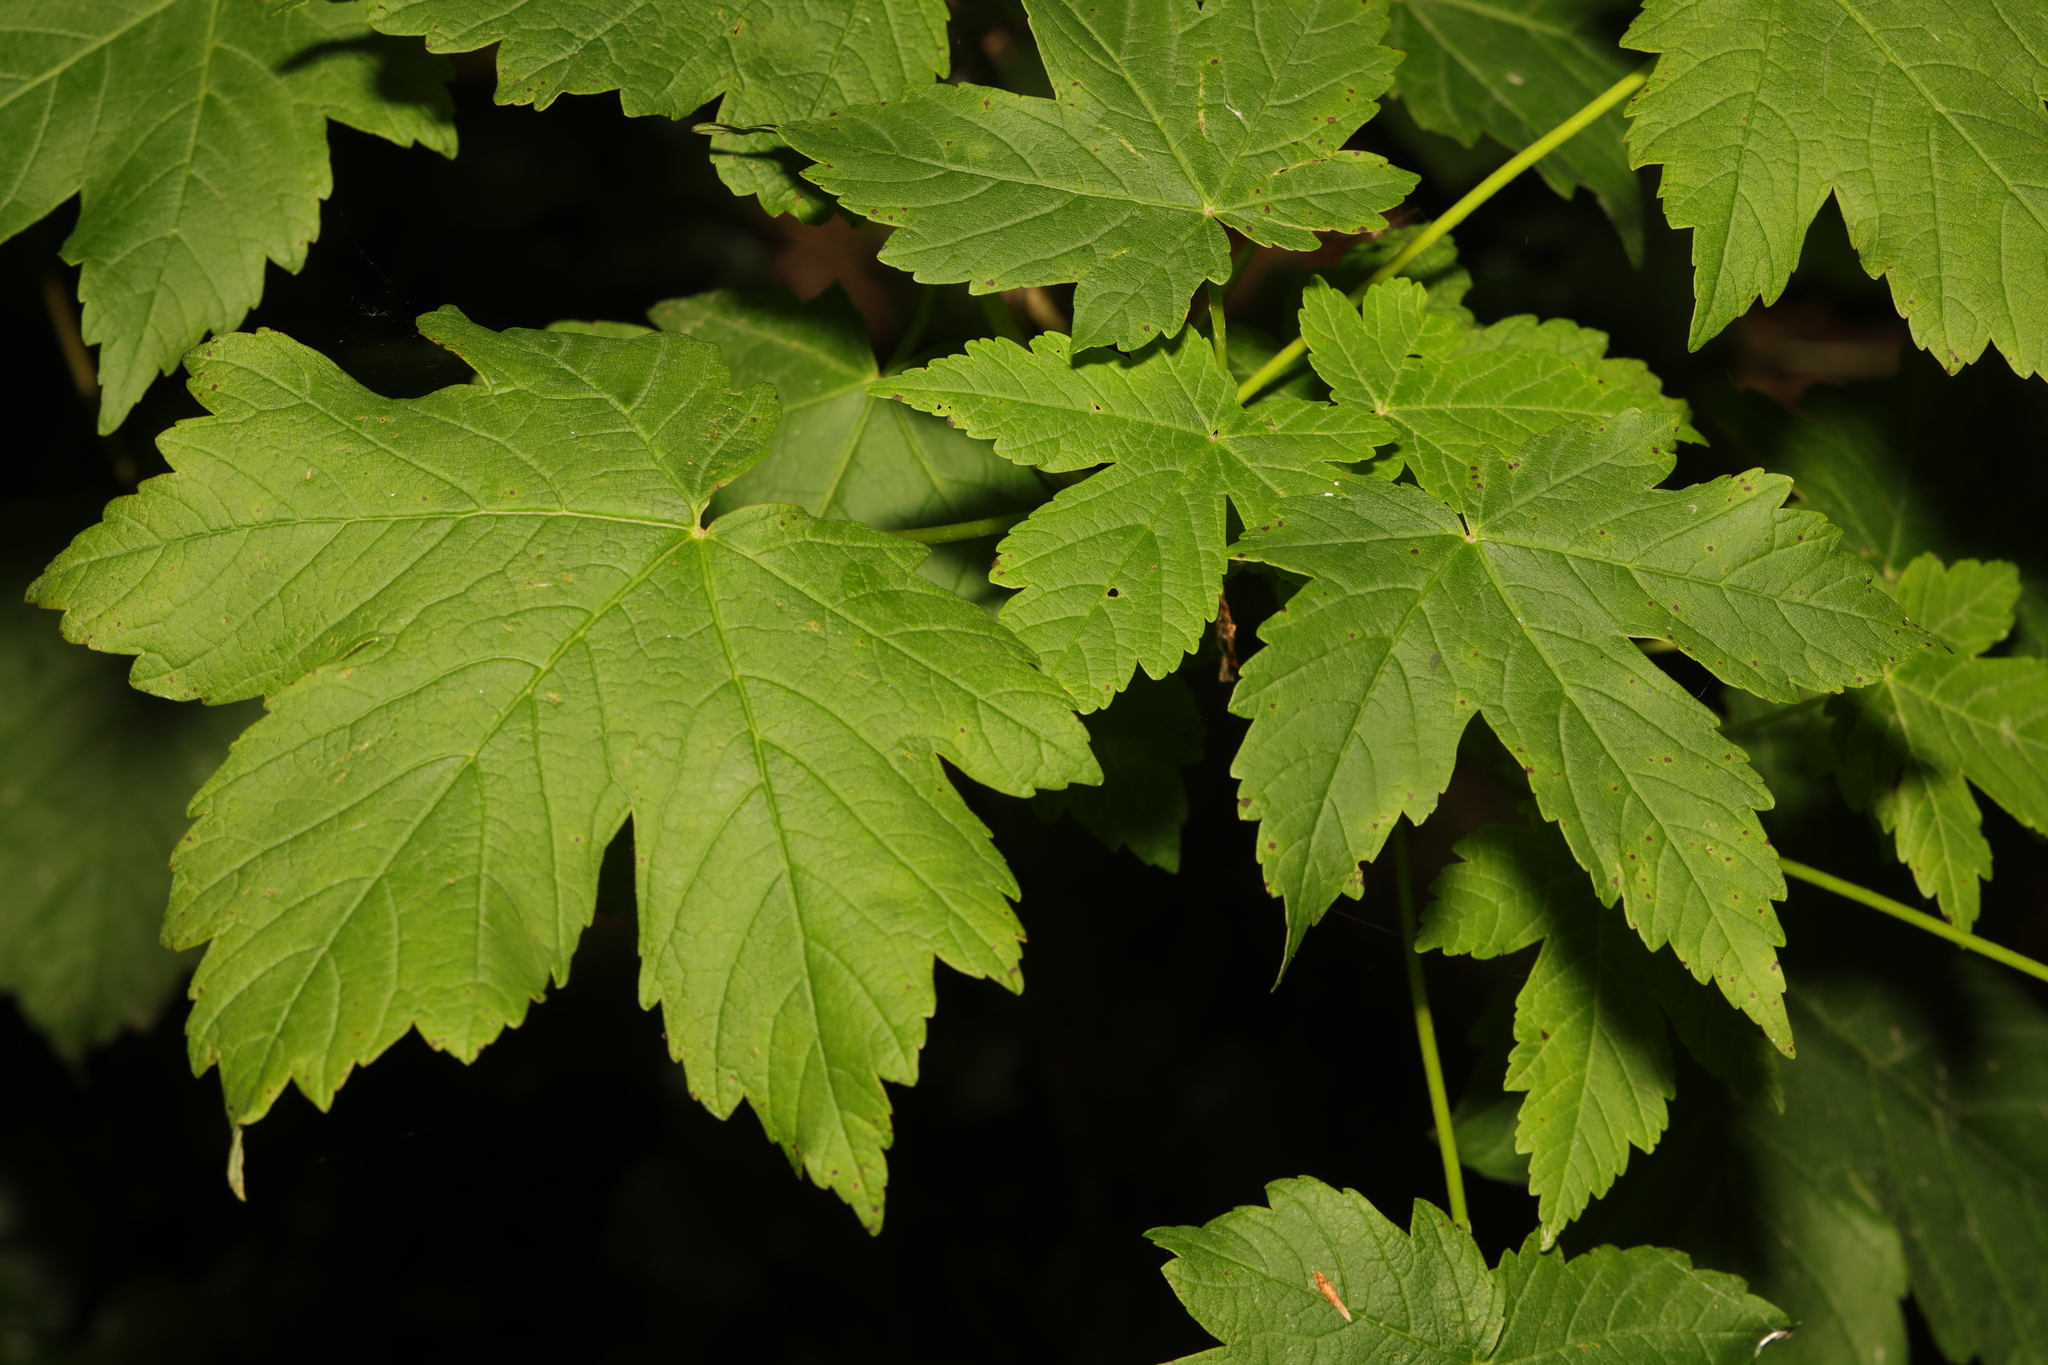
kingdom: Plantae
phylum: Tracheophyta
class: Magnoliopsida
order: Sapindales
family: Sapindaceae
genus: Acer
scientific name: Acer pseudoplatanus
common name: Sycamore
